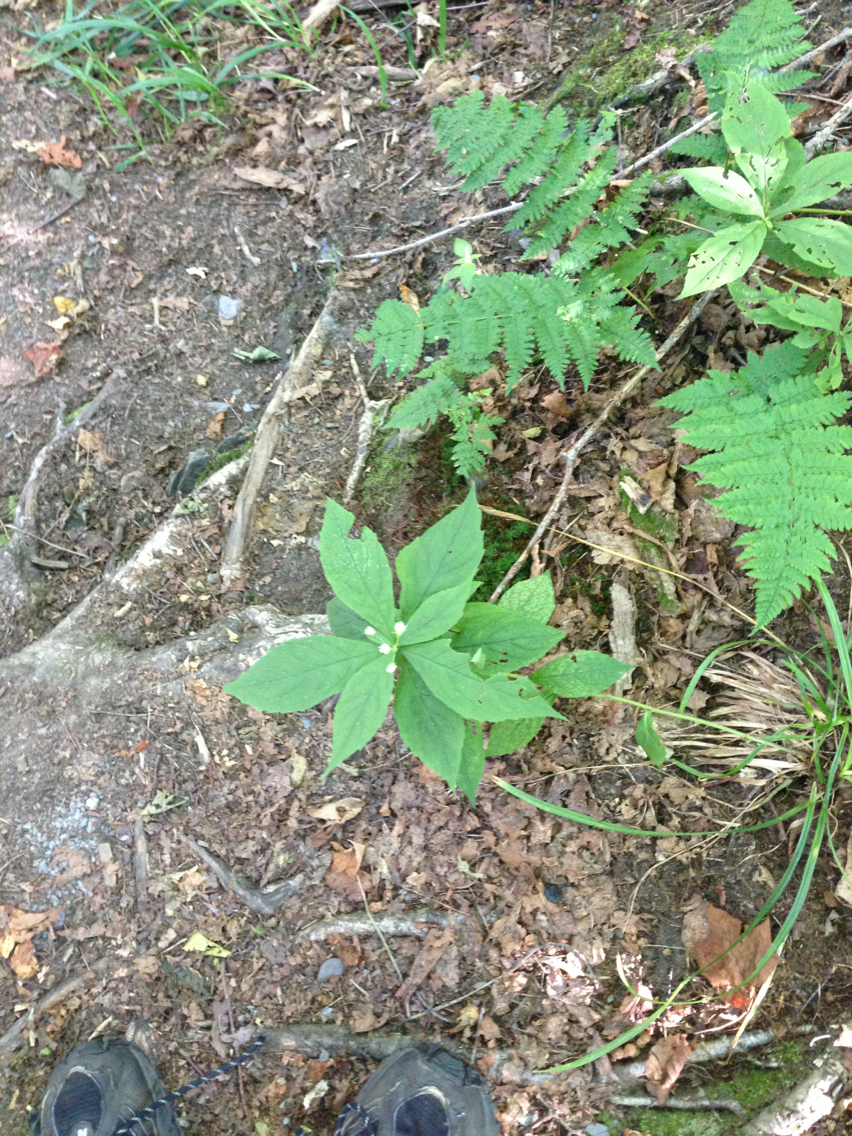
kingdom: Plantae
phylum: Tracheophyta
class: Magnoliopsida
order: Asterales
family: Asteraceae
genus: Oclemena
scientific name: Oclemena acuminata
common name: Mountain aster
